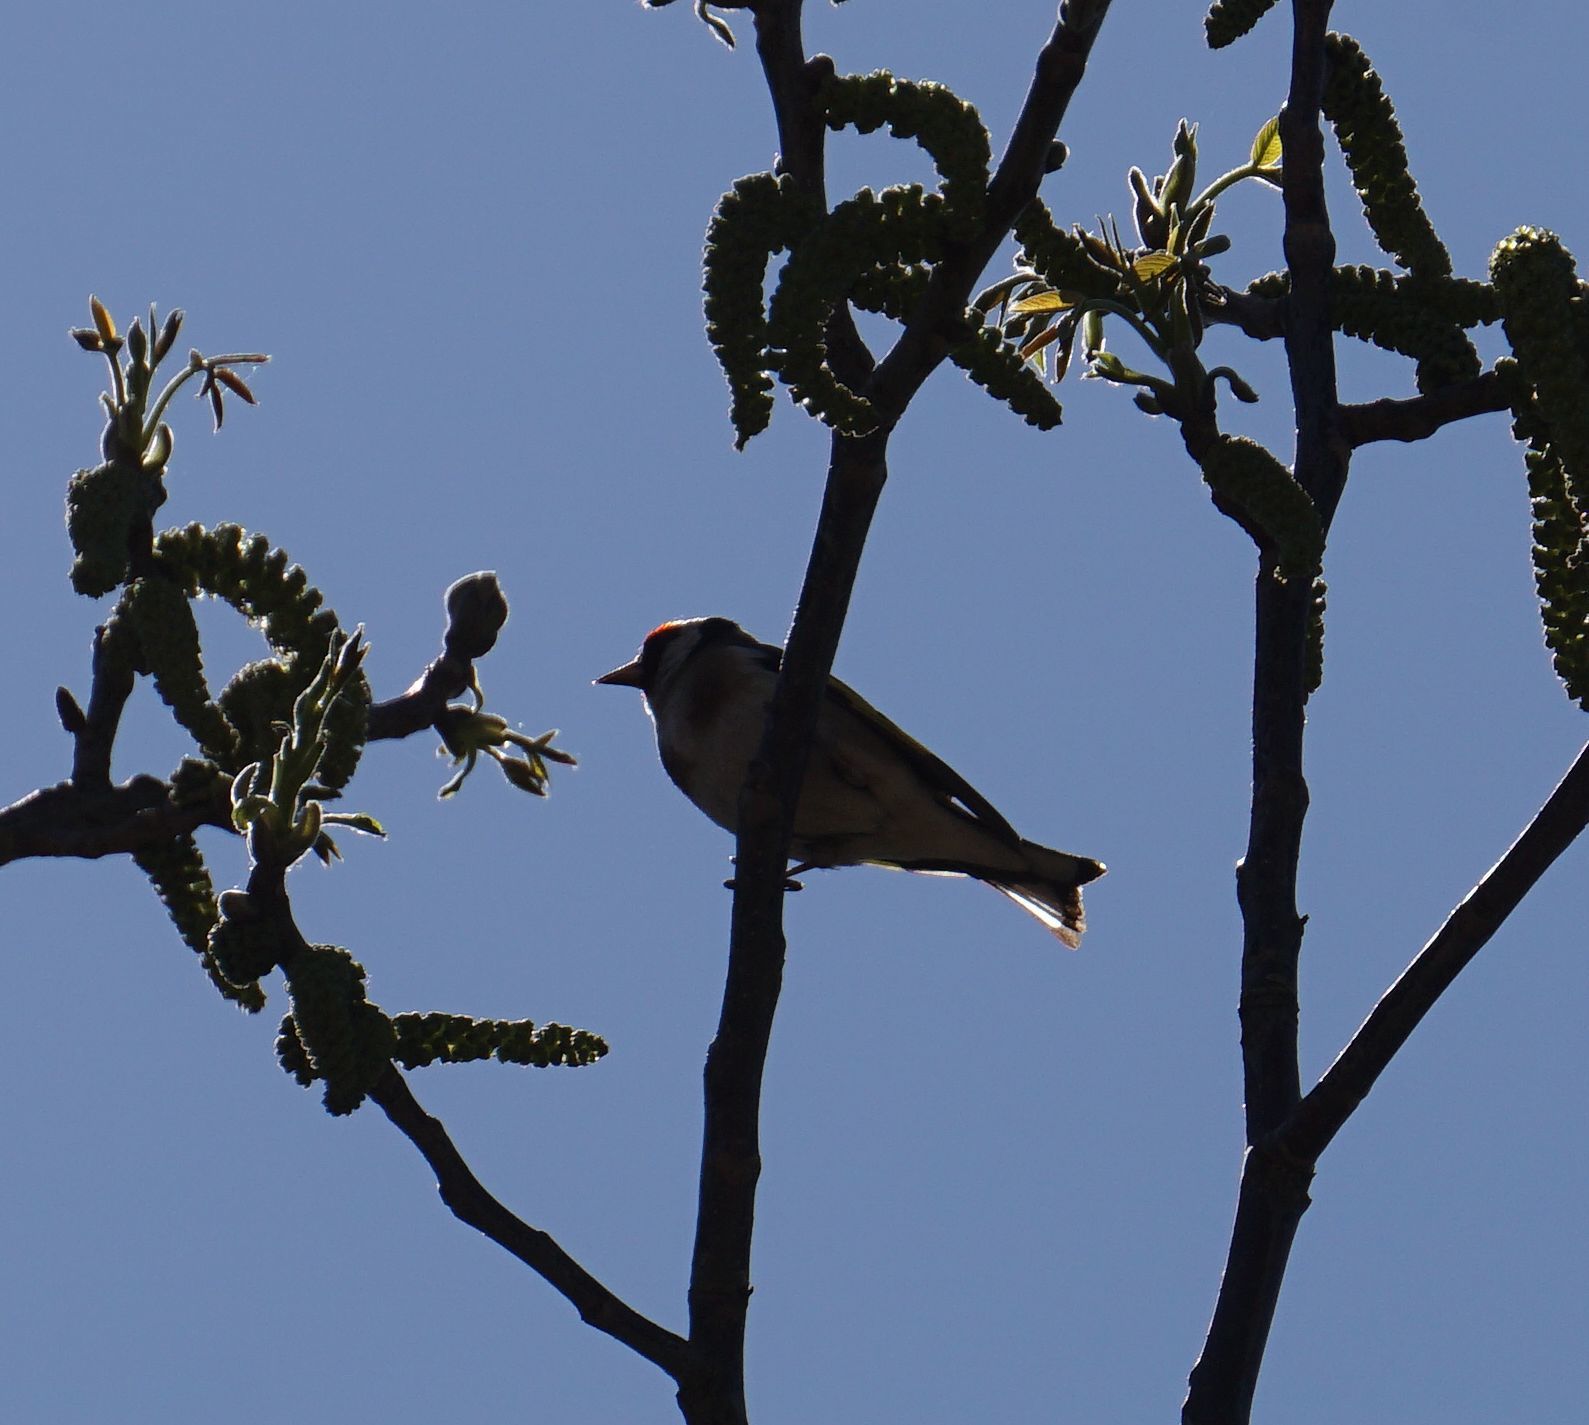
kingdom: Animalia
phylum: Chordata
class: Aves
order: Passeriformes
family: Fringillidae
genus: Carduelis
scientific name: Carduelis carduelis
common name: European goldfinch
